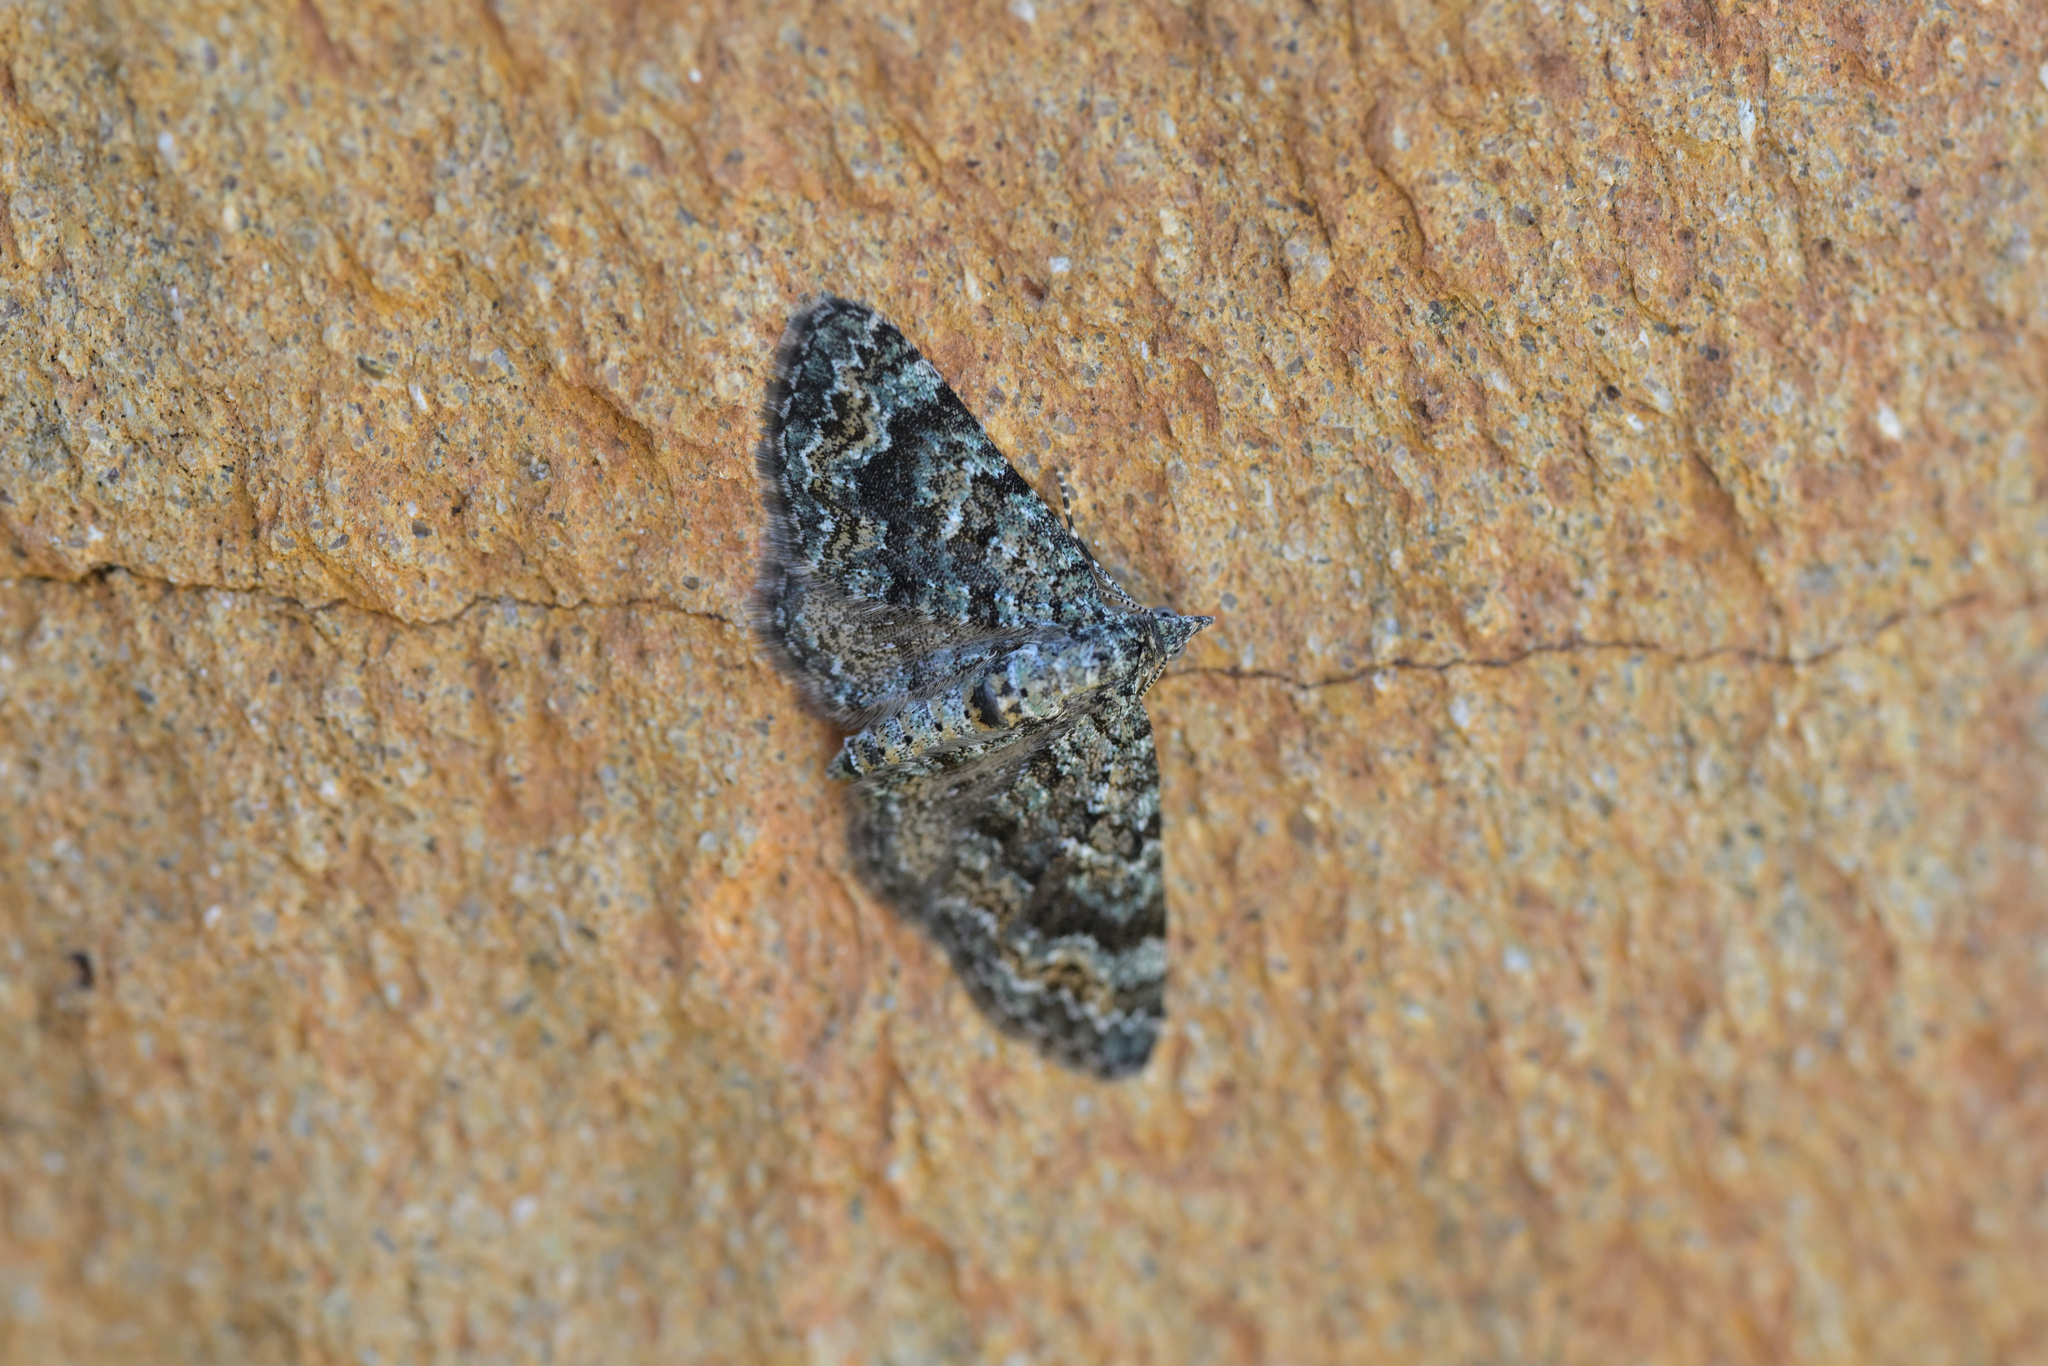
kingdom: Animalia
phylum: Arthropoda
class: Insecta
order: Lepidoptera
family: Geometridae
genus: Chloroclystis
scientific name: Chloroclystis nereis
